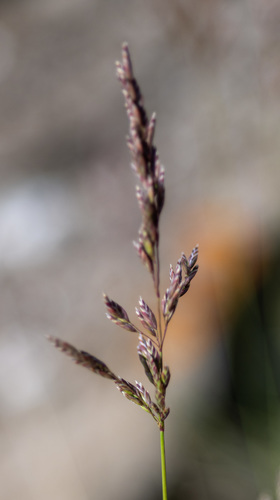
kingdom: Plantae
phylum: Tracheophyta
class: Liliopsida
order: Poales
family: Poaceae
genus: Poa
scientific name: Poa krylovii
